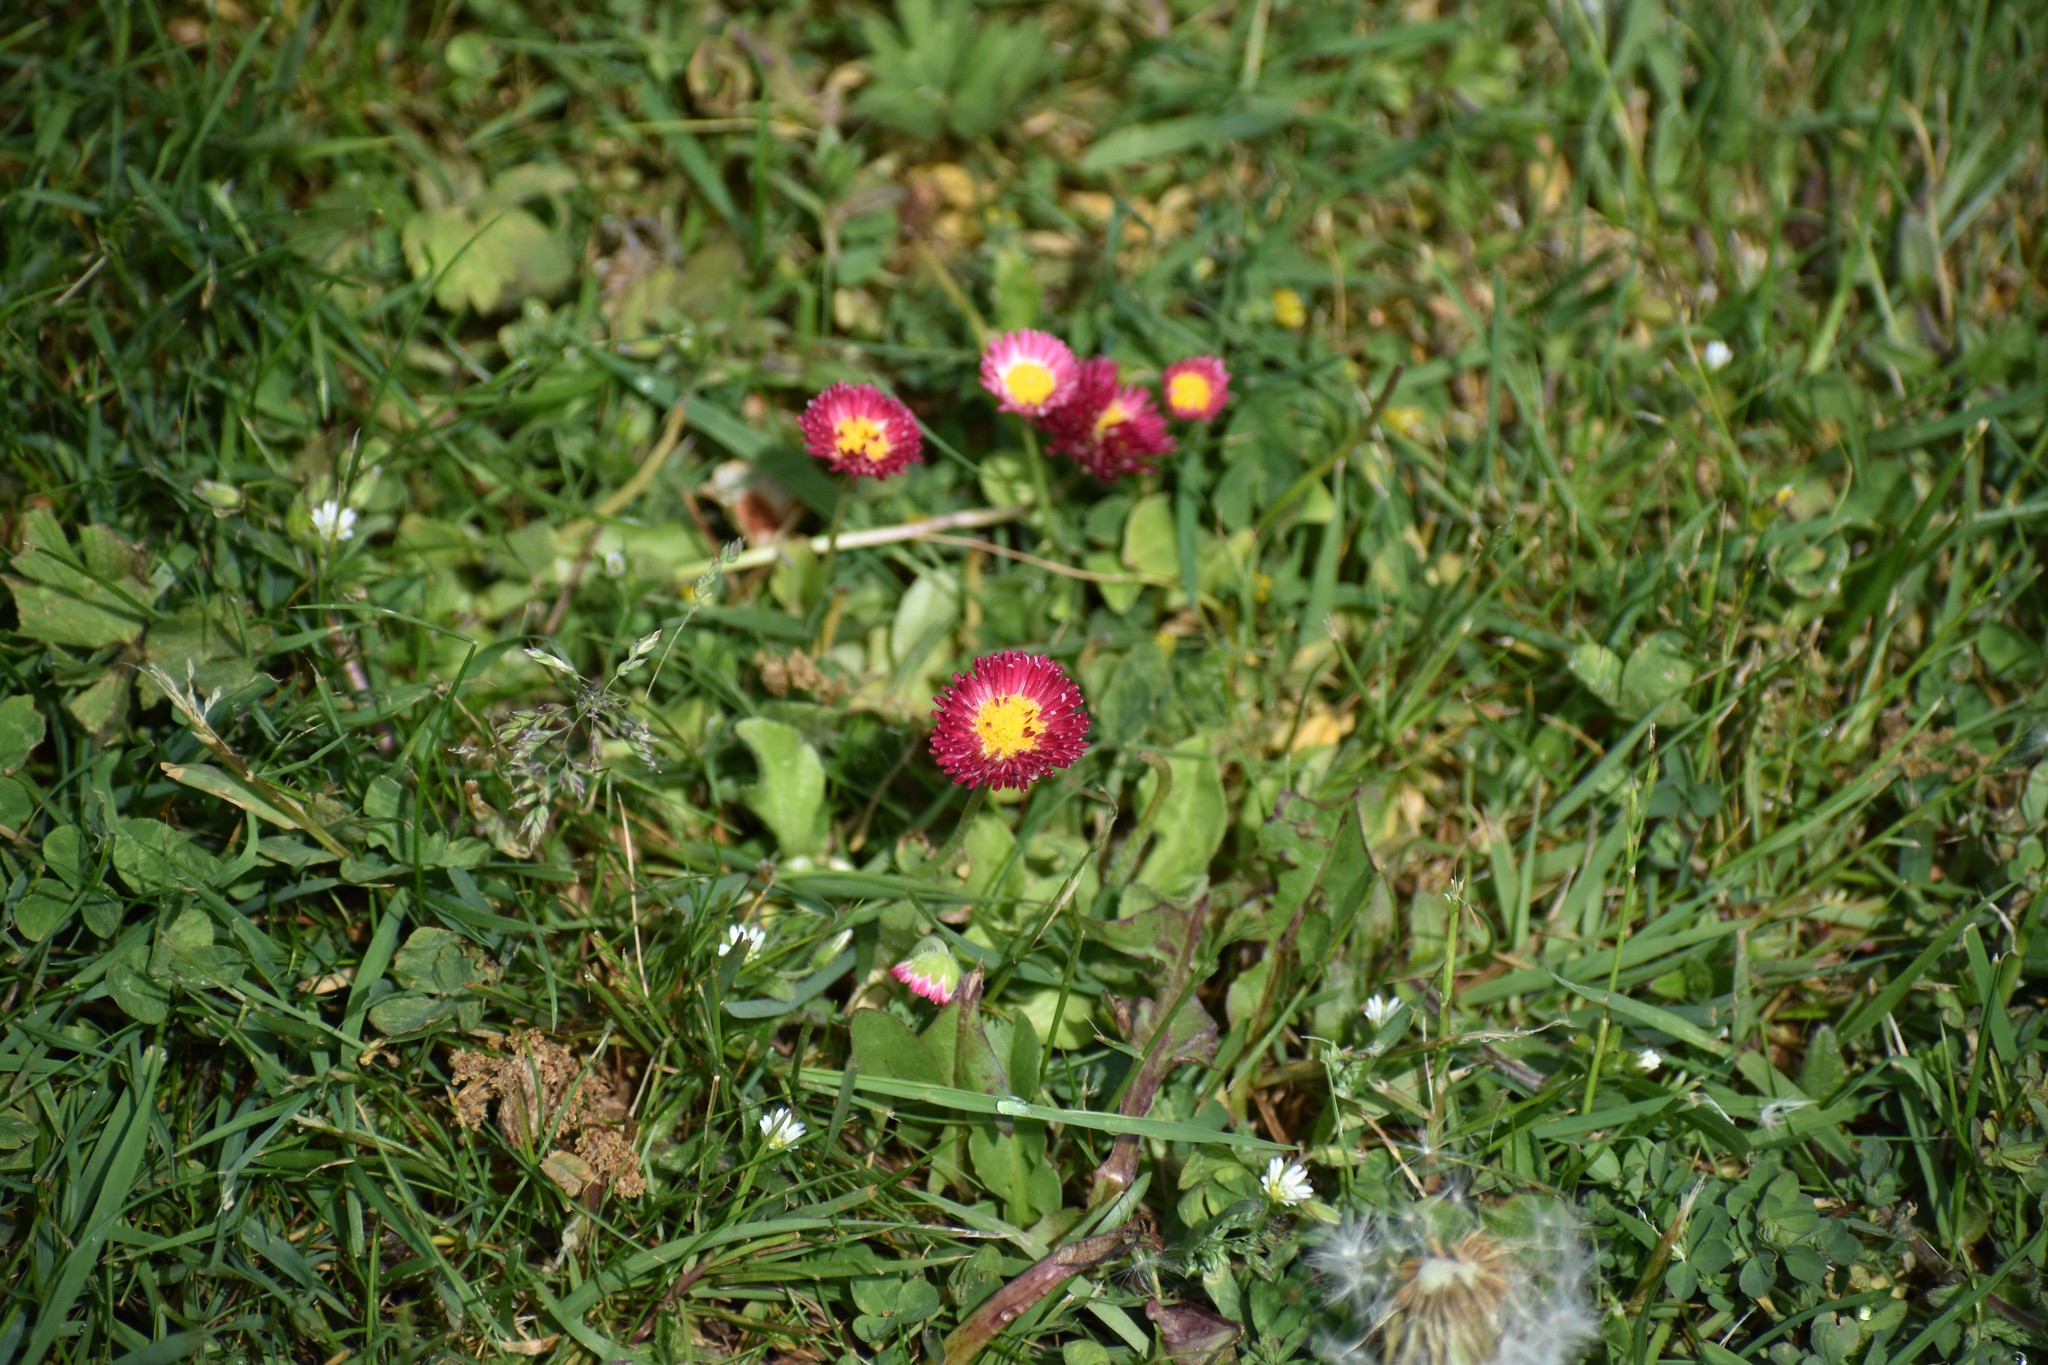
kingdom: Plantae
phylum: Tracheophyta
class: Magnoliopsida
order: Asterales
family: Asteraceae
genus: Bellis
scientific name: Bellis perennis
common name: Lawndaisy
